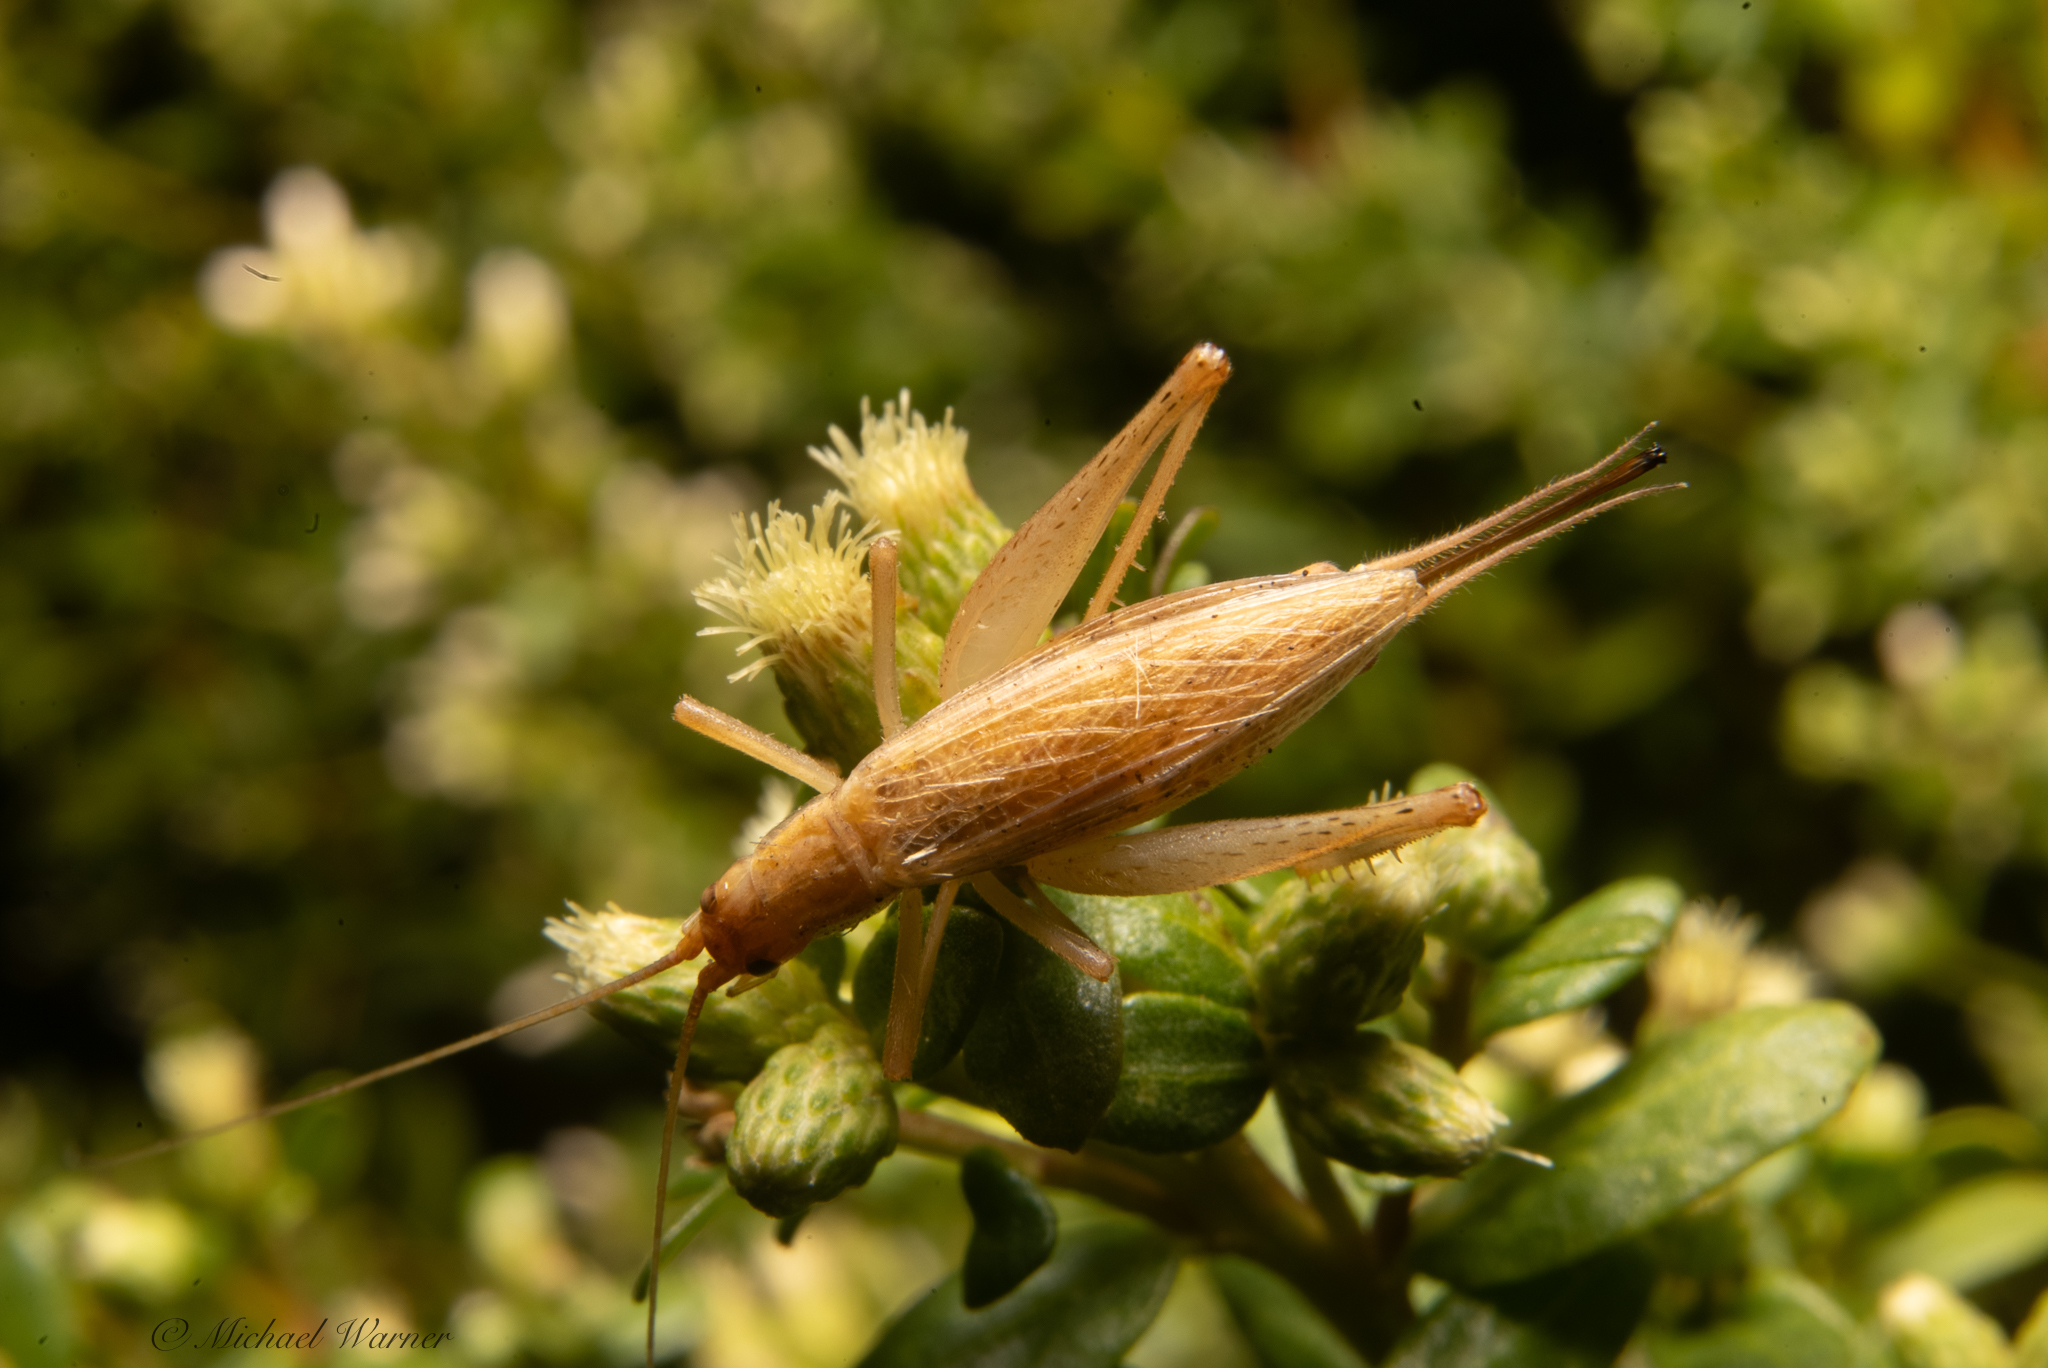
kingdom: Animalia
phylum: Arthropoda
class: Insecta
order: Orthoptera
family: Gryllidae
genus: Oecanthus
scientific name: Oecanthus californicus
